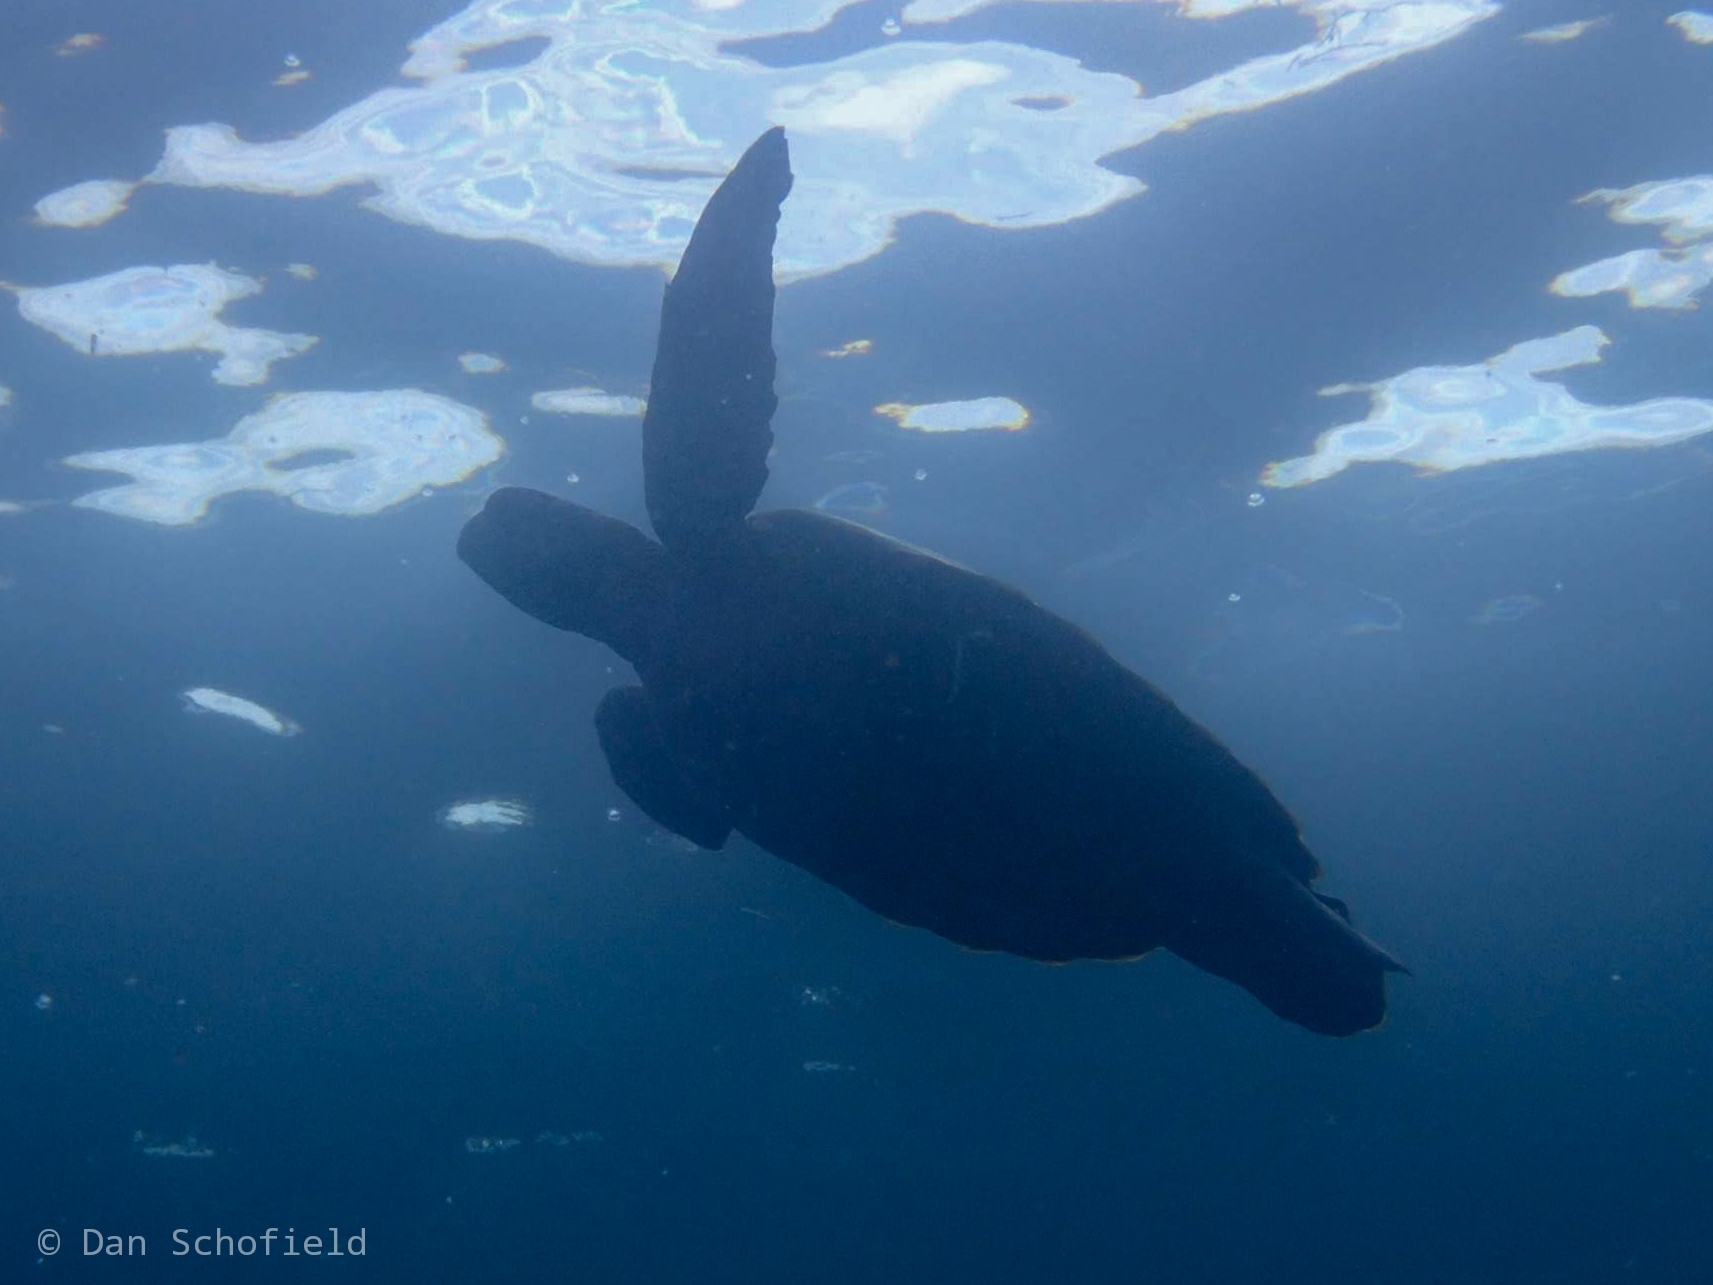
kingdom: Animalia
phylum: Chordata
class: Testudines
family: Cheloniidae
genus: Chelonia
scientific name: Chelonia mydas
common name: Green turtle
